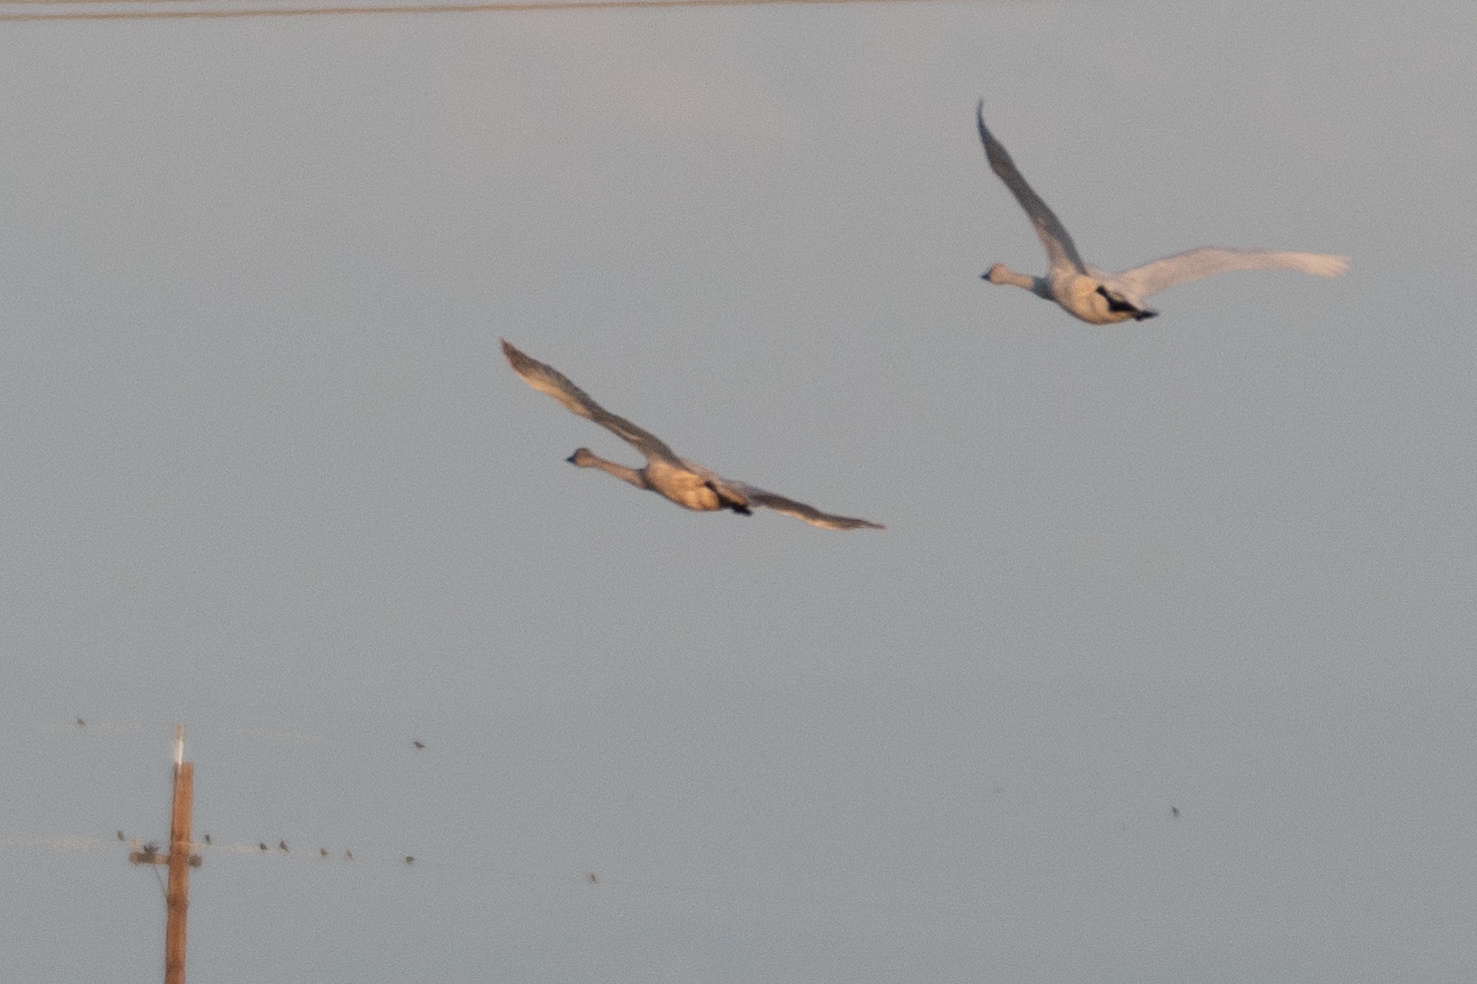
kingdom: Animalia
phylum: Chordata
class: Aves
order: Anseriformes
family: Anatidae
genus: Cygnus
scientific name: Cygnus columbianus
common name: Tundra swan
